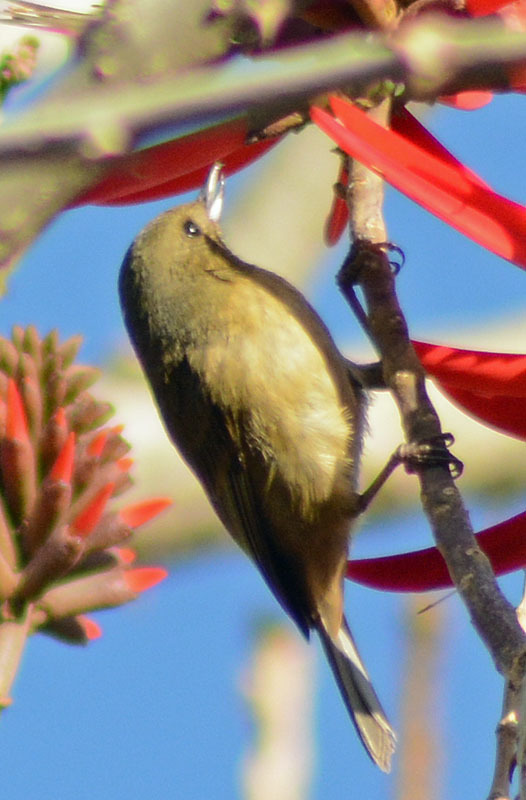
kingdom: Animalia
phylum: Chordata
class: Aves
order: Passeriformes
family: Thraupidae
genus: Diglossa
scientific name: Diglossa baritula
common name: Cinnamon-bellied flowerpiercer
